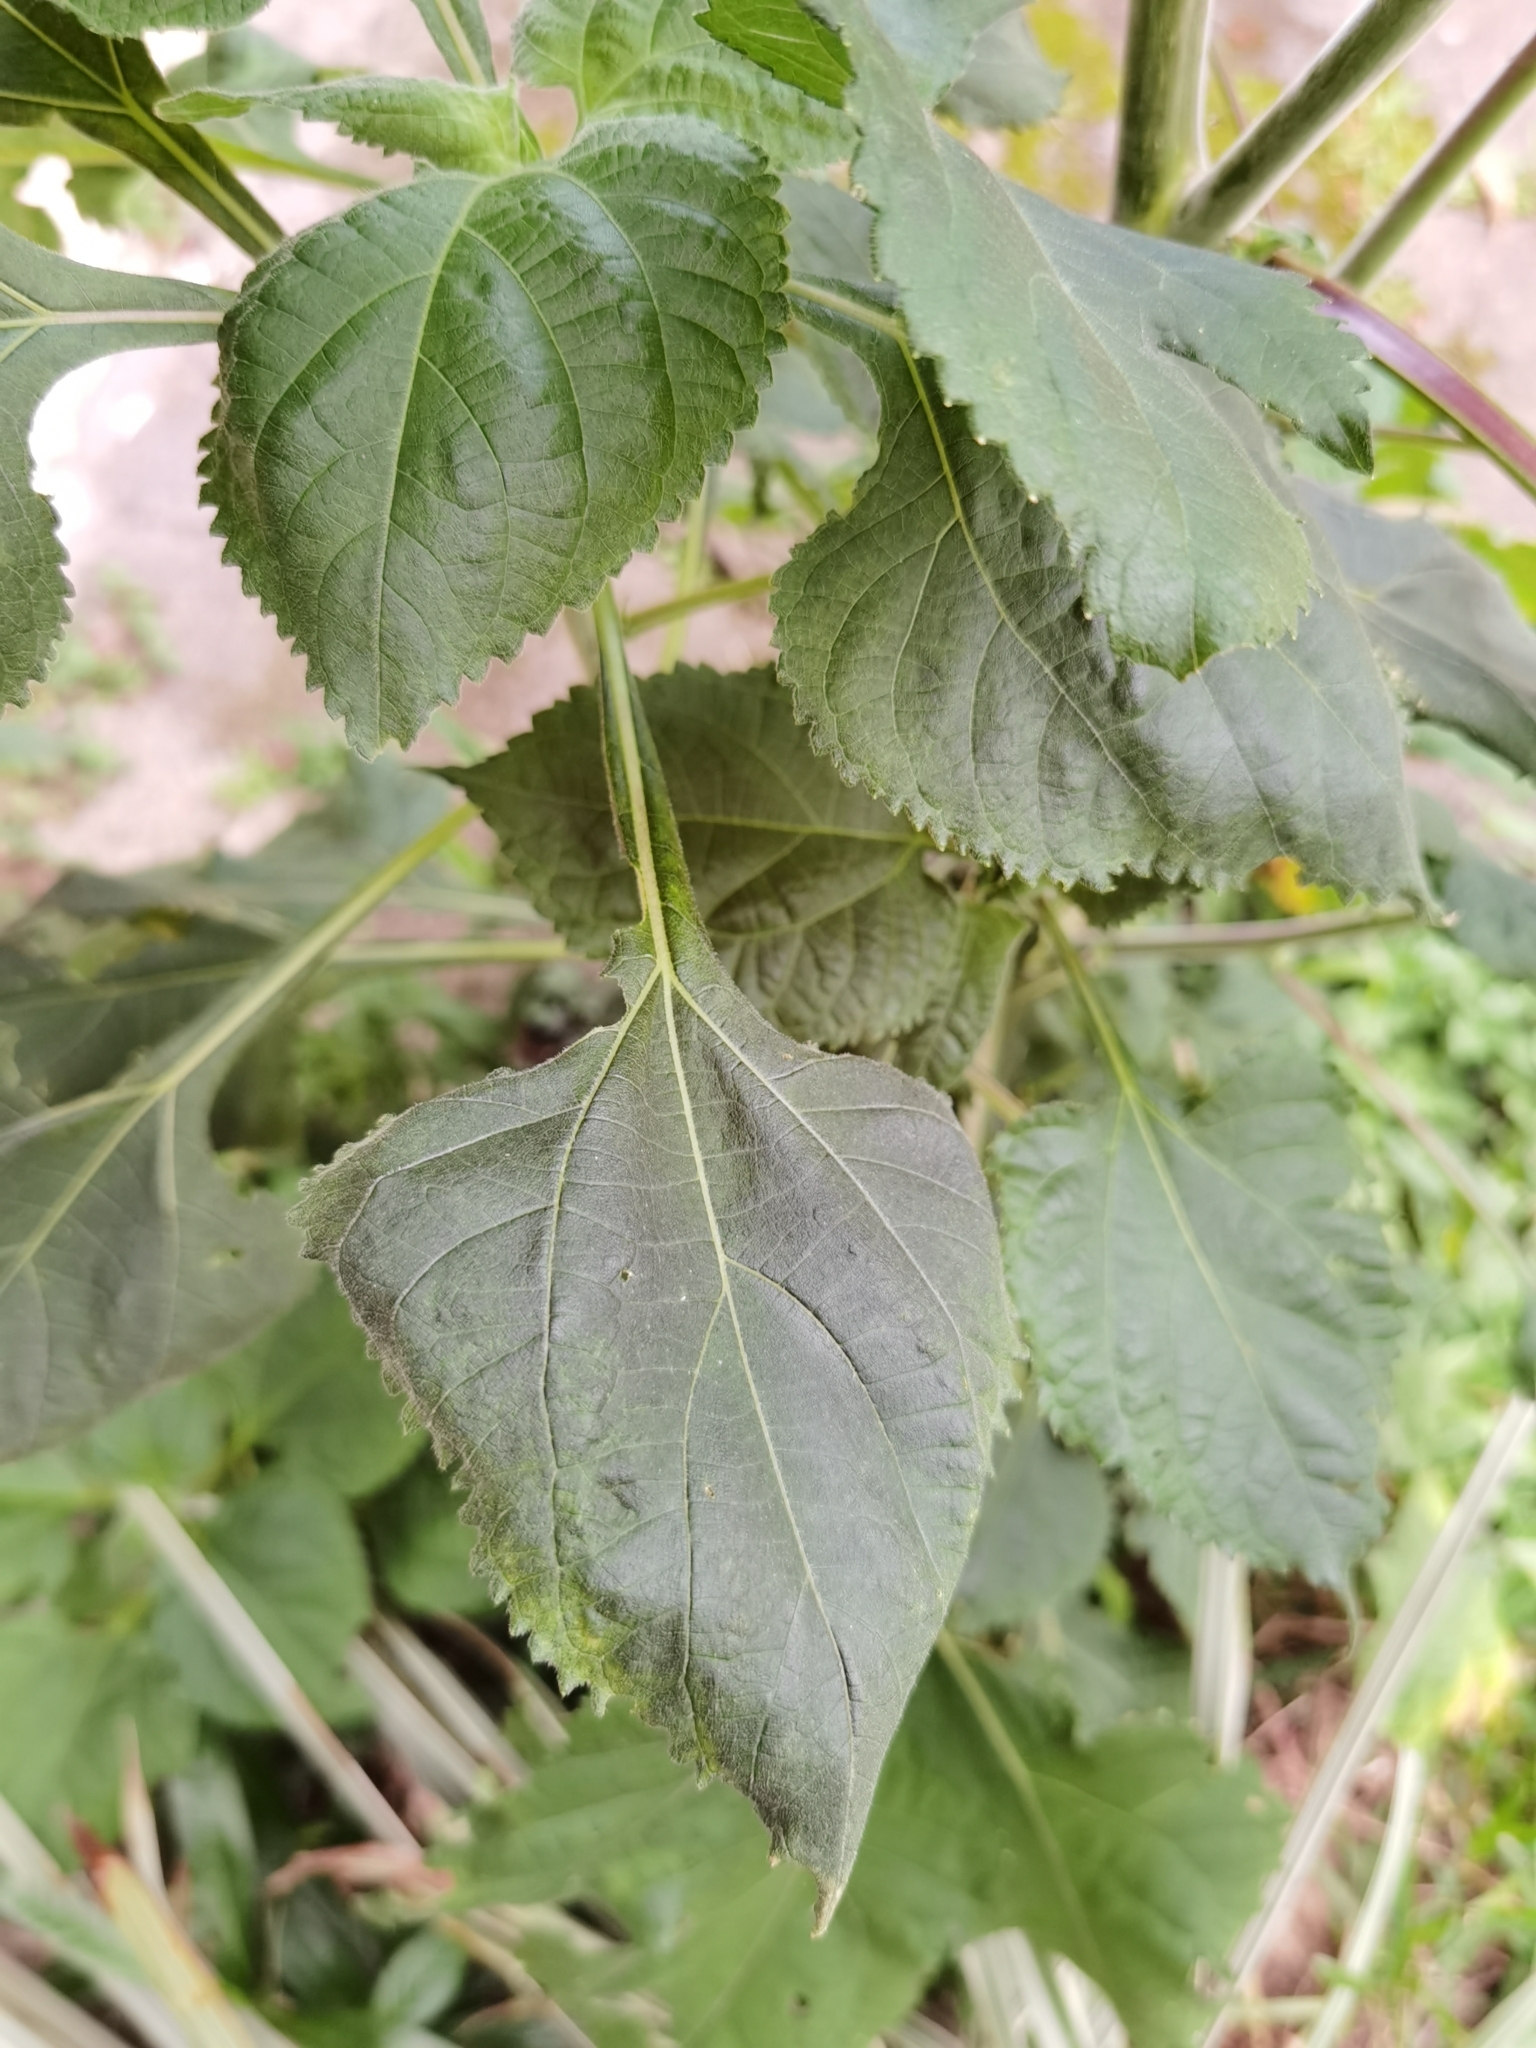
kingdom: Plantae
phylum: Tracheophyta
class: Magnoliopsida
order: Asterales
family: Asteraceae
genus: Tithonia
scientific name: Tithonia rotundifolia
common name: Sunflower
